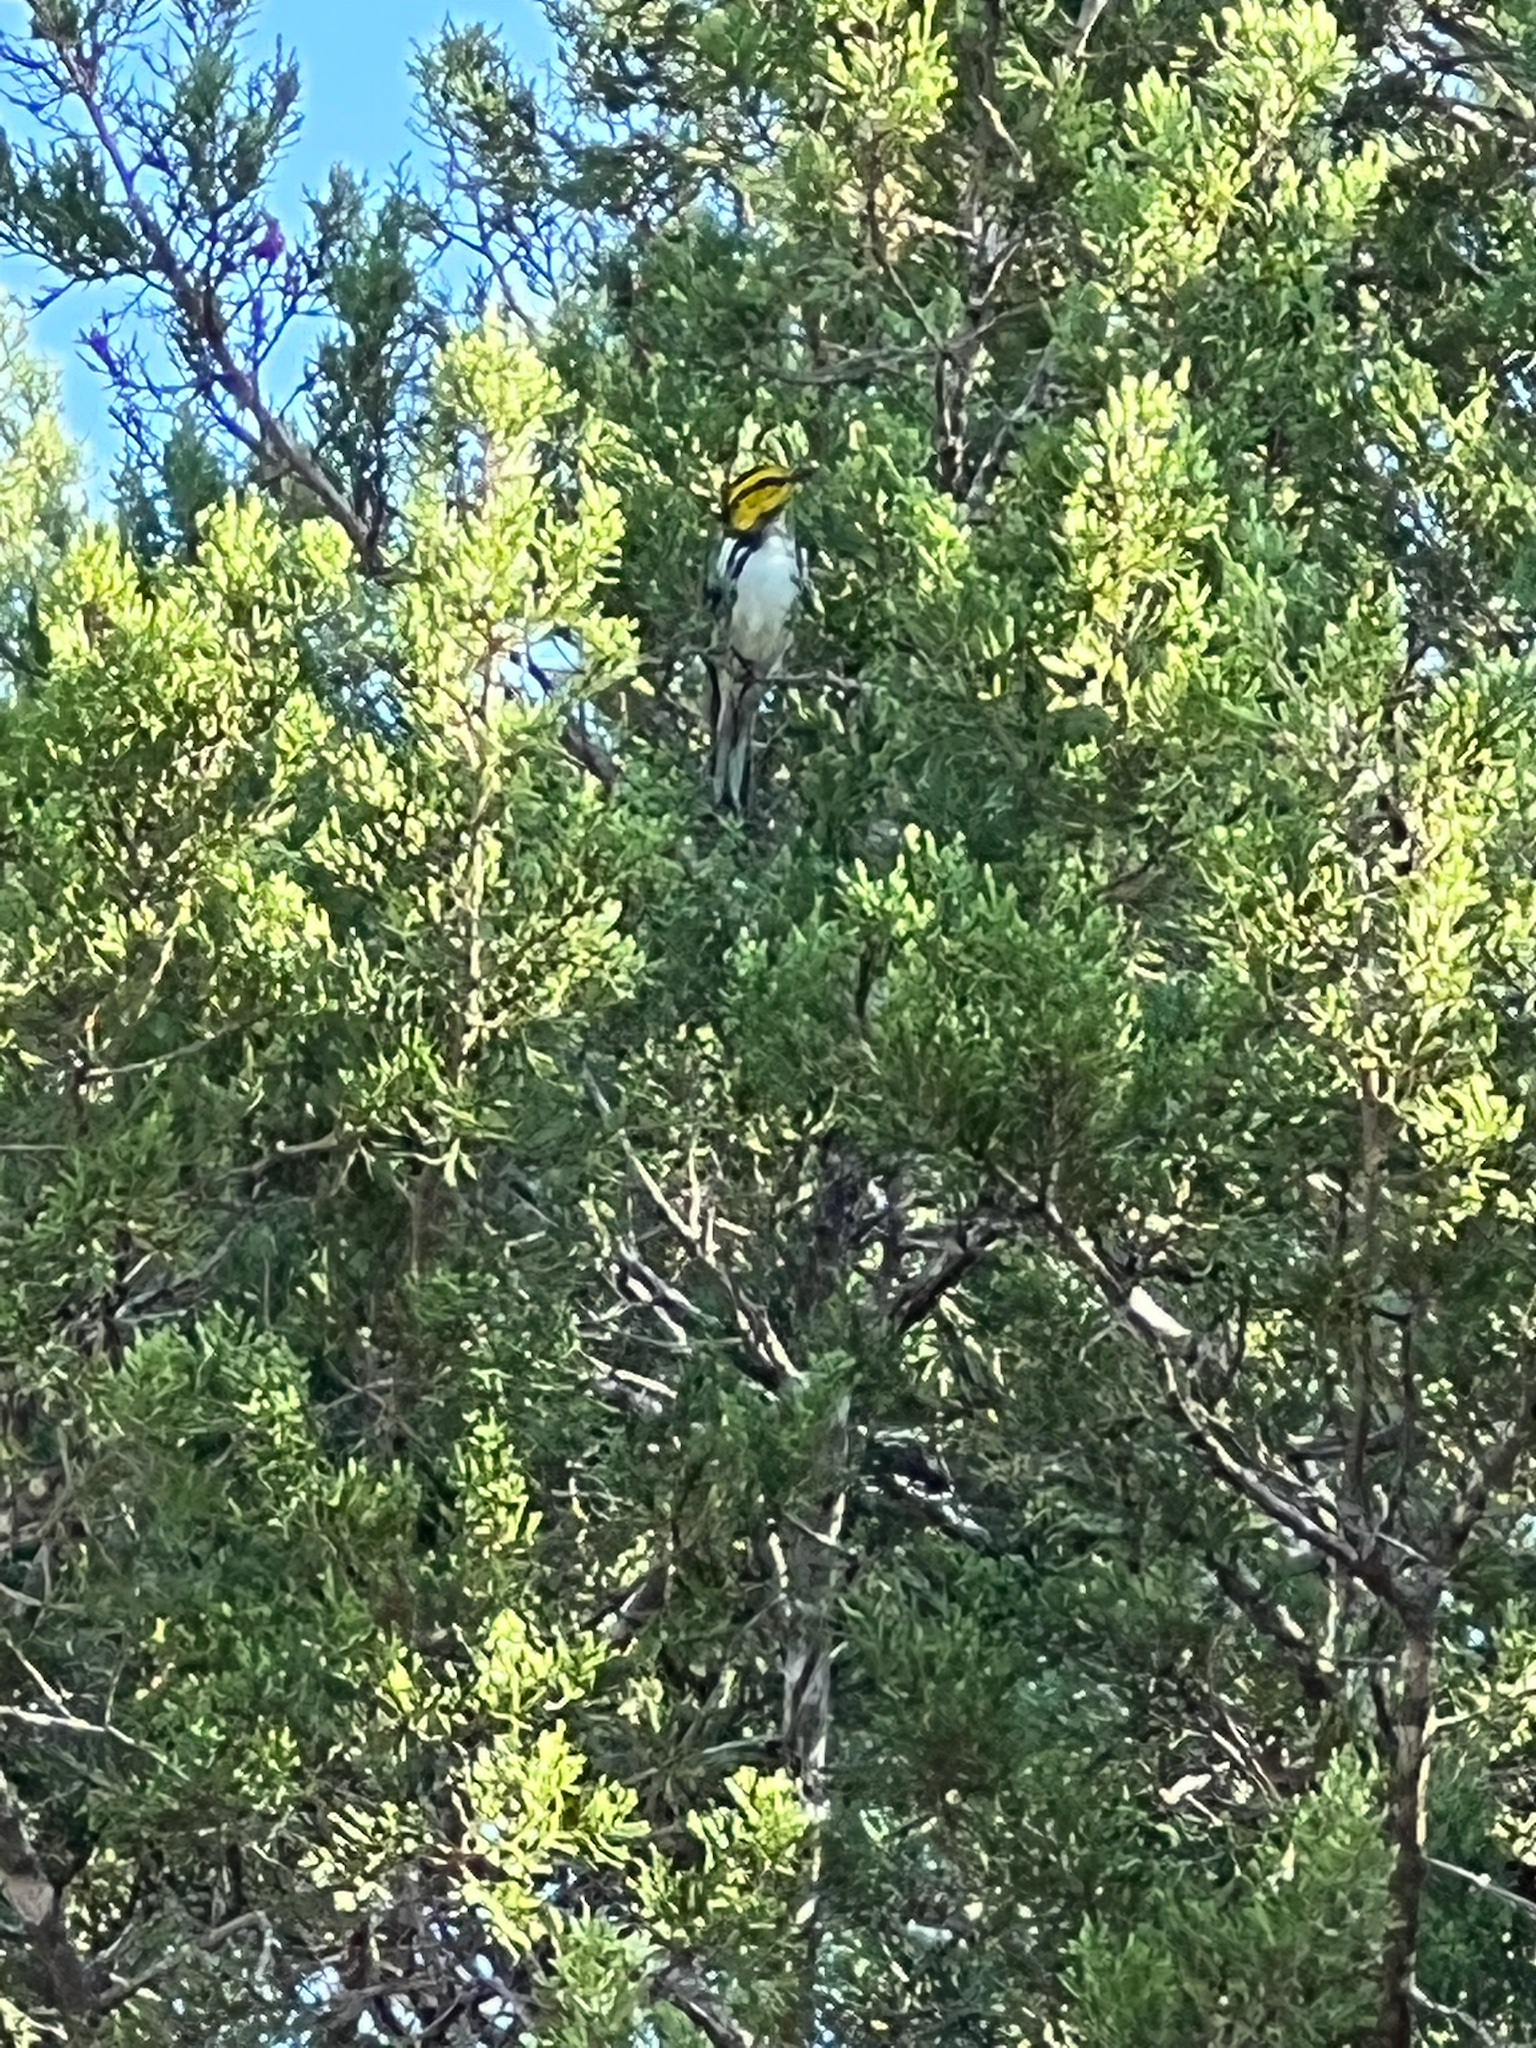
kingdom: Animalia
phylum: Chordata
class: Aves
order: Passeriformes
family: Parulidae
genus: Setophaga
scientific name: Setophaga chrysoparia
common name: Golden-cheeked warbler
